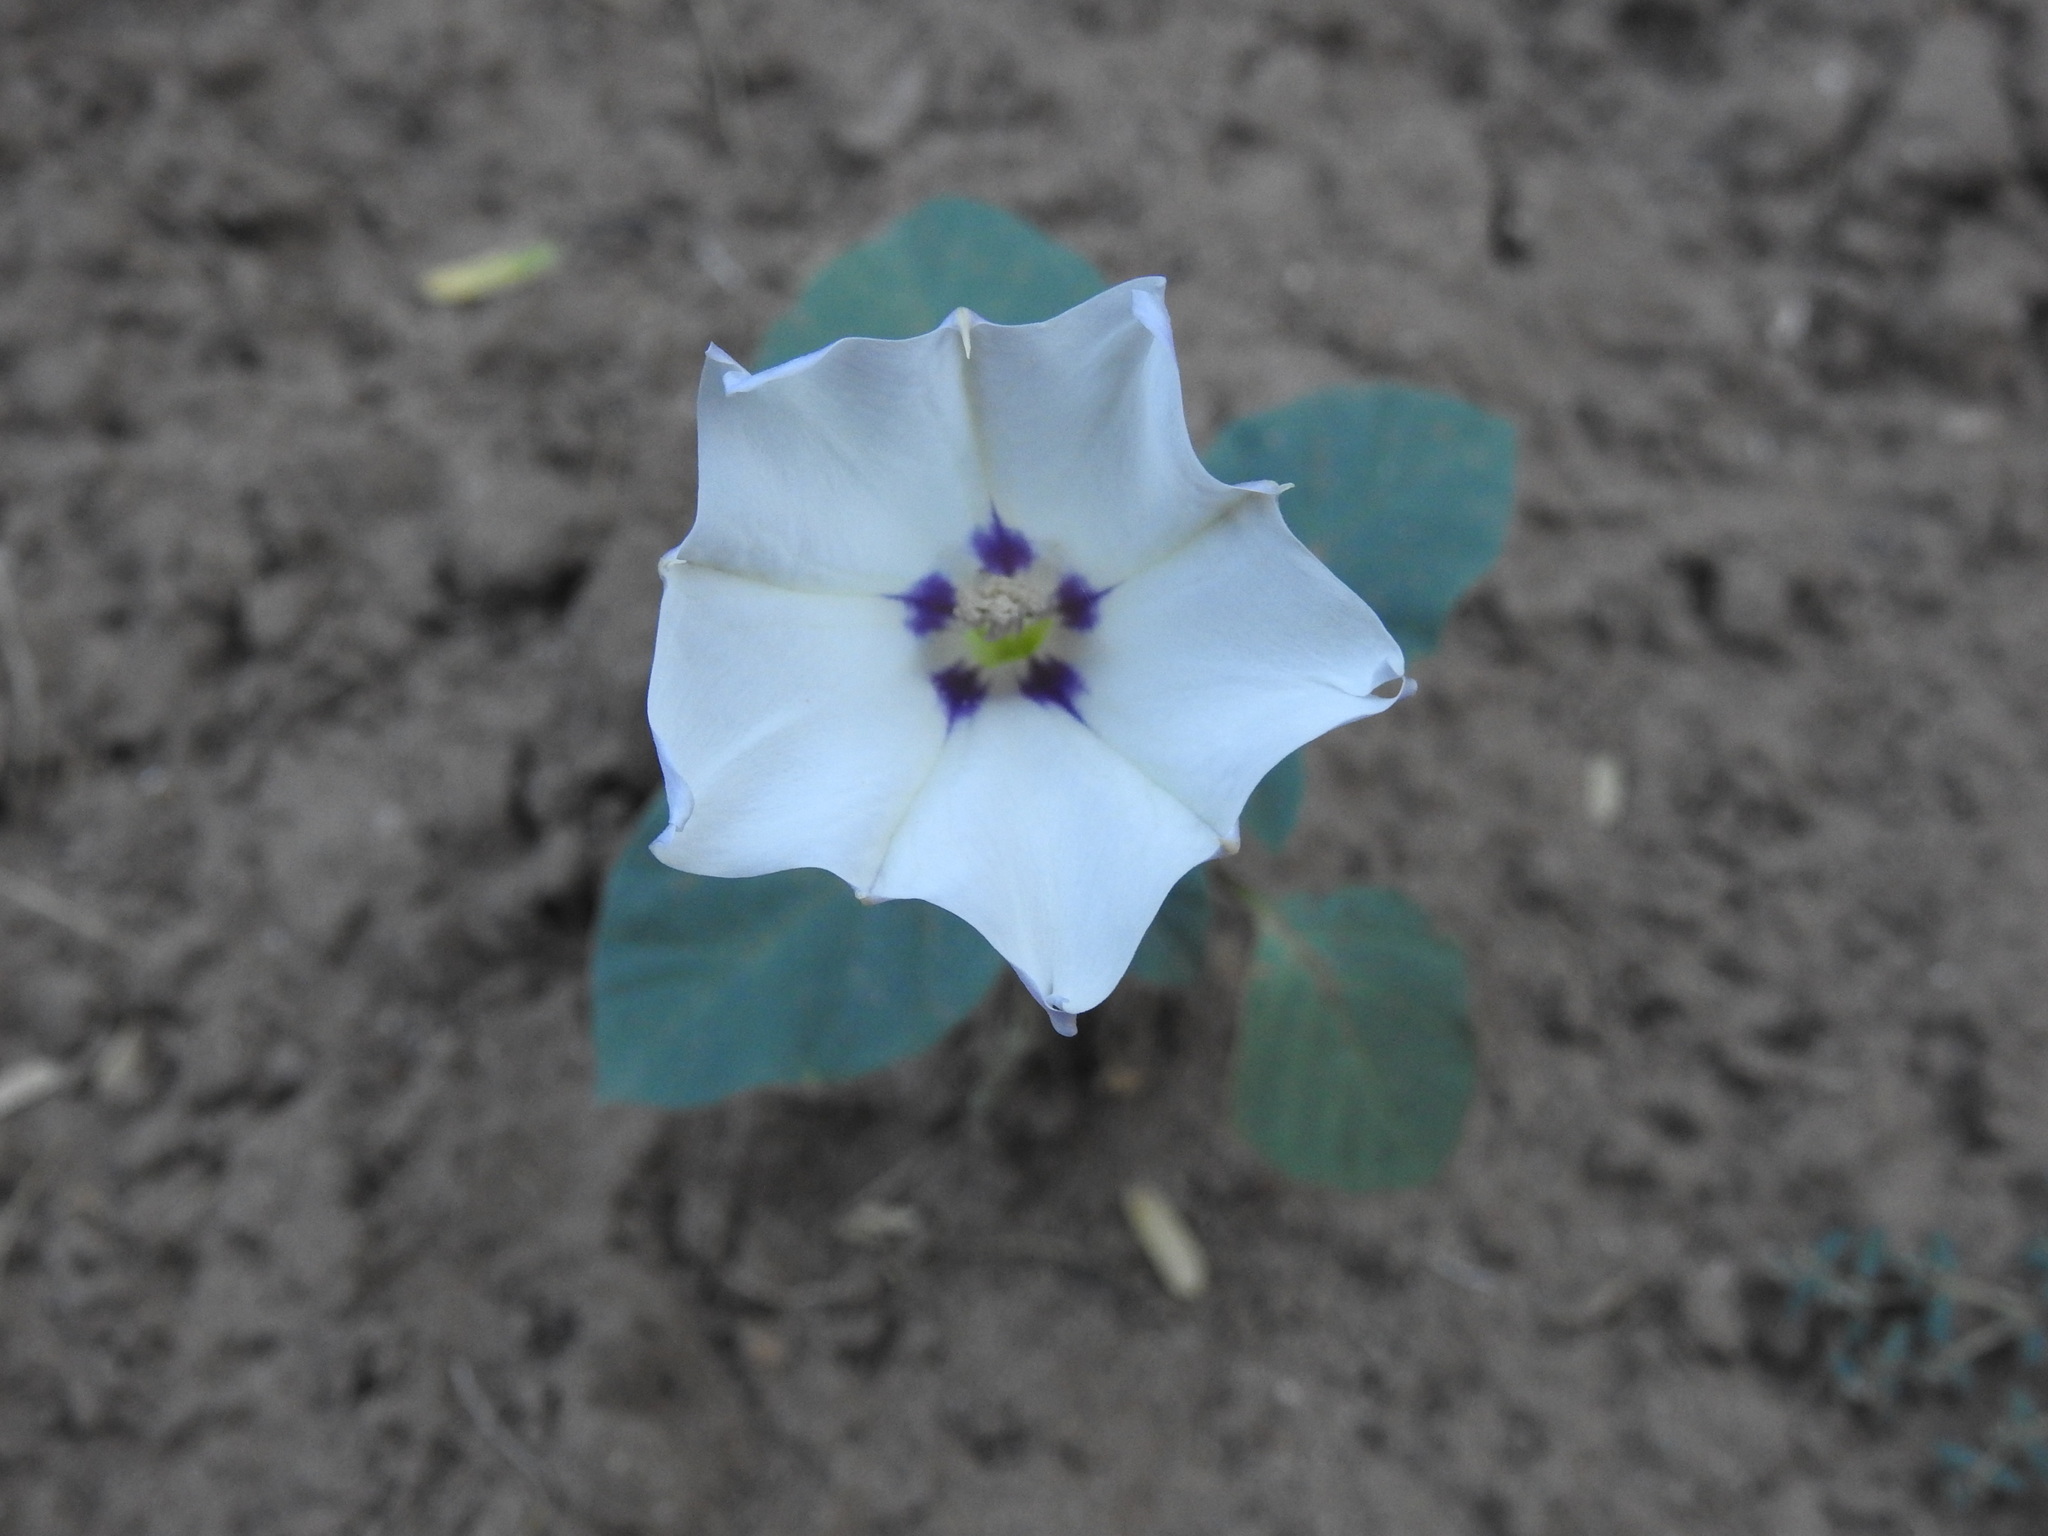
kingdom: Plantae
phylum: Tracheophyta
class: Magnoliopsida
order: Solanales
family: Solanaceae
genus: Datura
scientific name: Datura discolor
